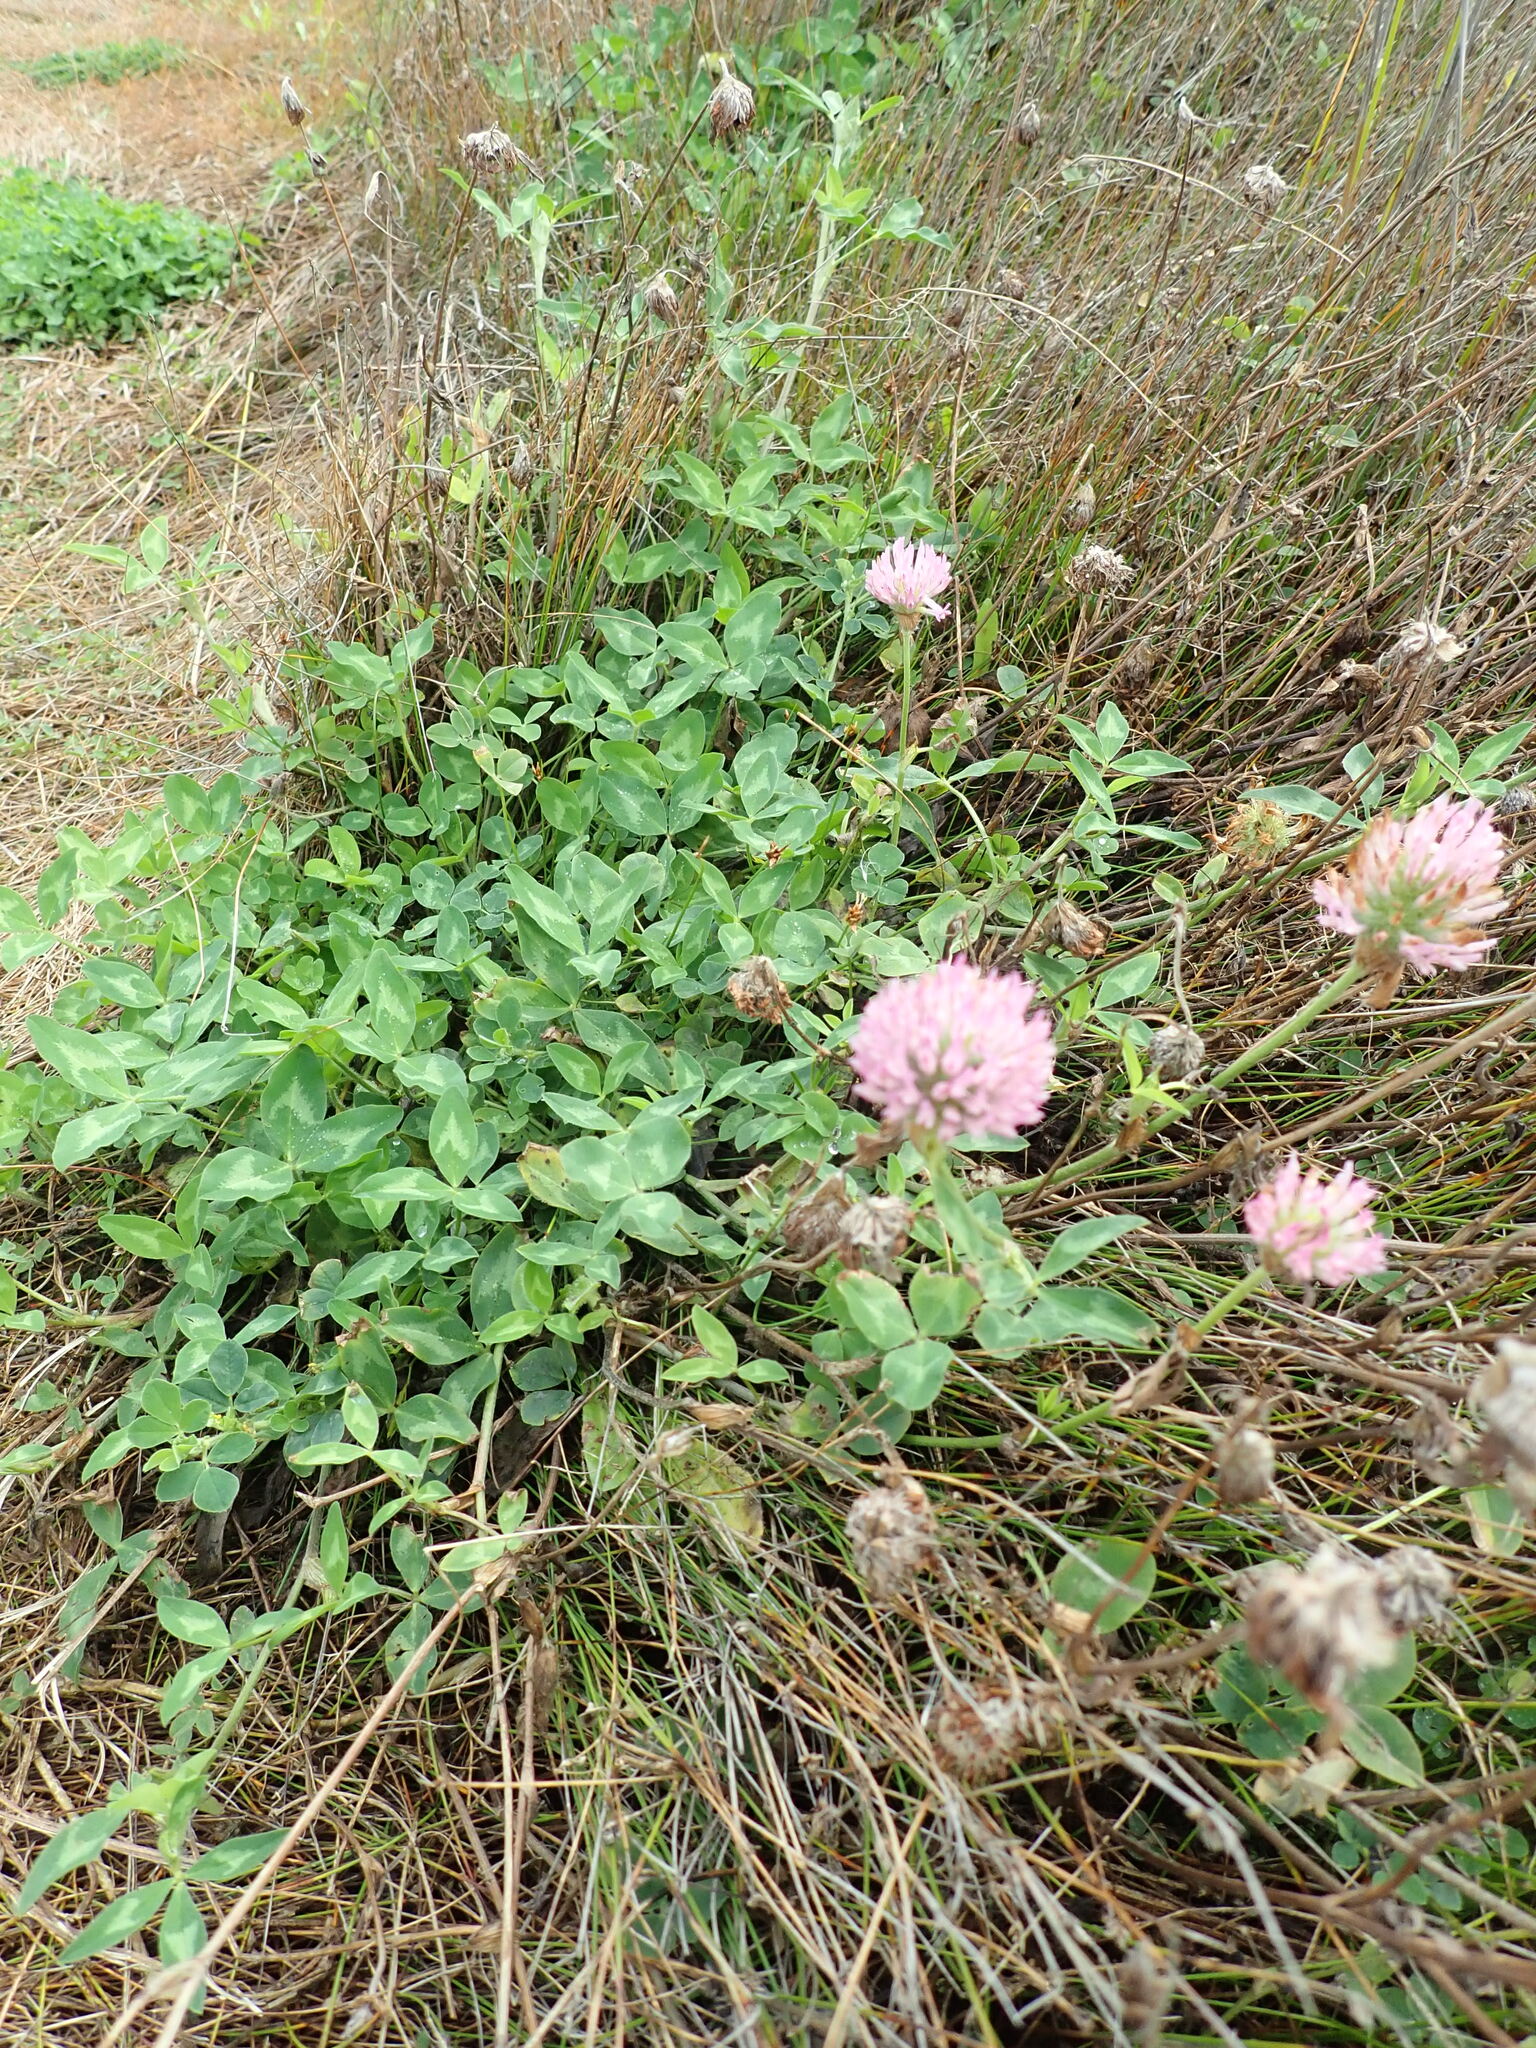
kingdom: Plantae
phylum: Tracheophyta
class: Magnoliopsida
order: Fabales
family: Fabaceae
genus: Trifolium
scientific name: Trifolium pratense
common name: Red clover
